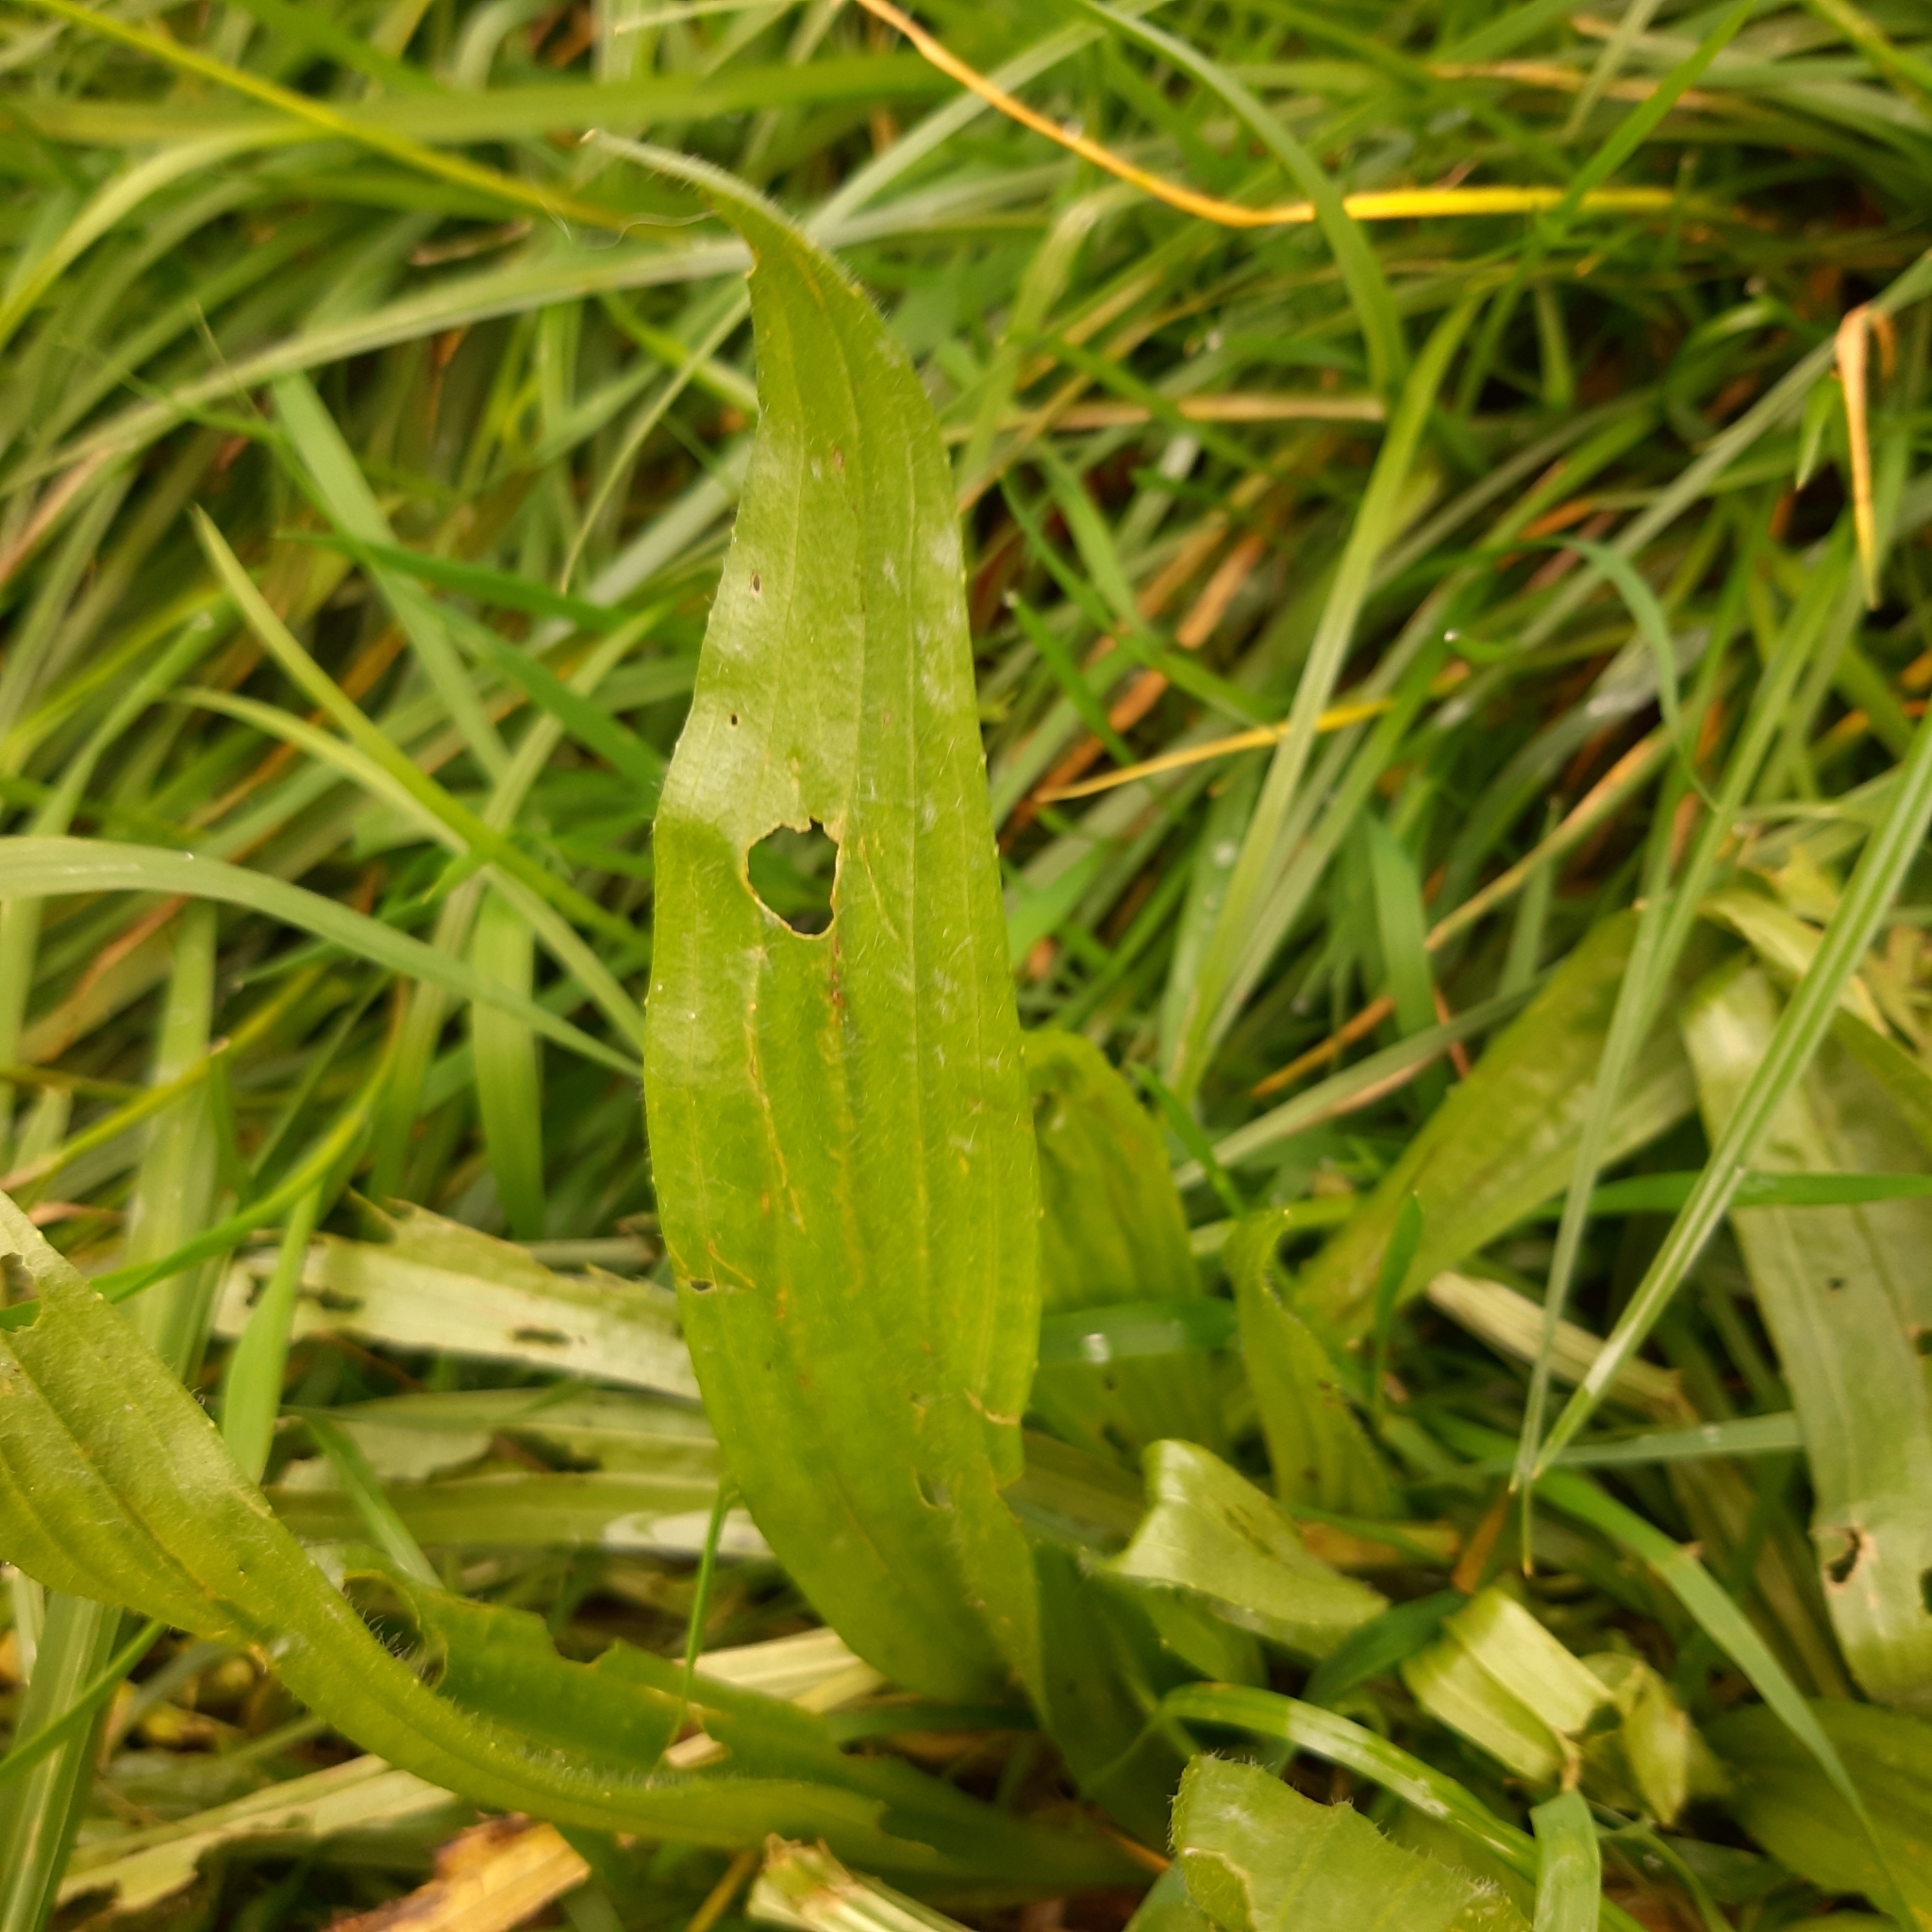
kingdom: Plantae
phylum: Tracheophyta
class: Magnoliopsida
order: Lamiales
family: Plantaginaceae
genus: Plantago
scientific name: Plantago lanceolata
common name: Ribwort plantain
